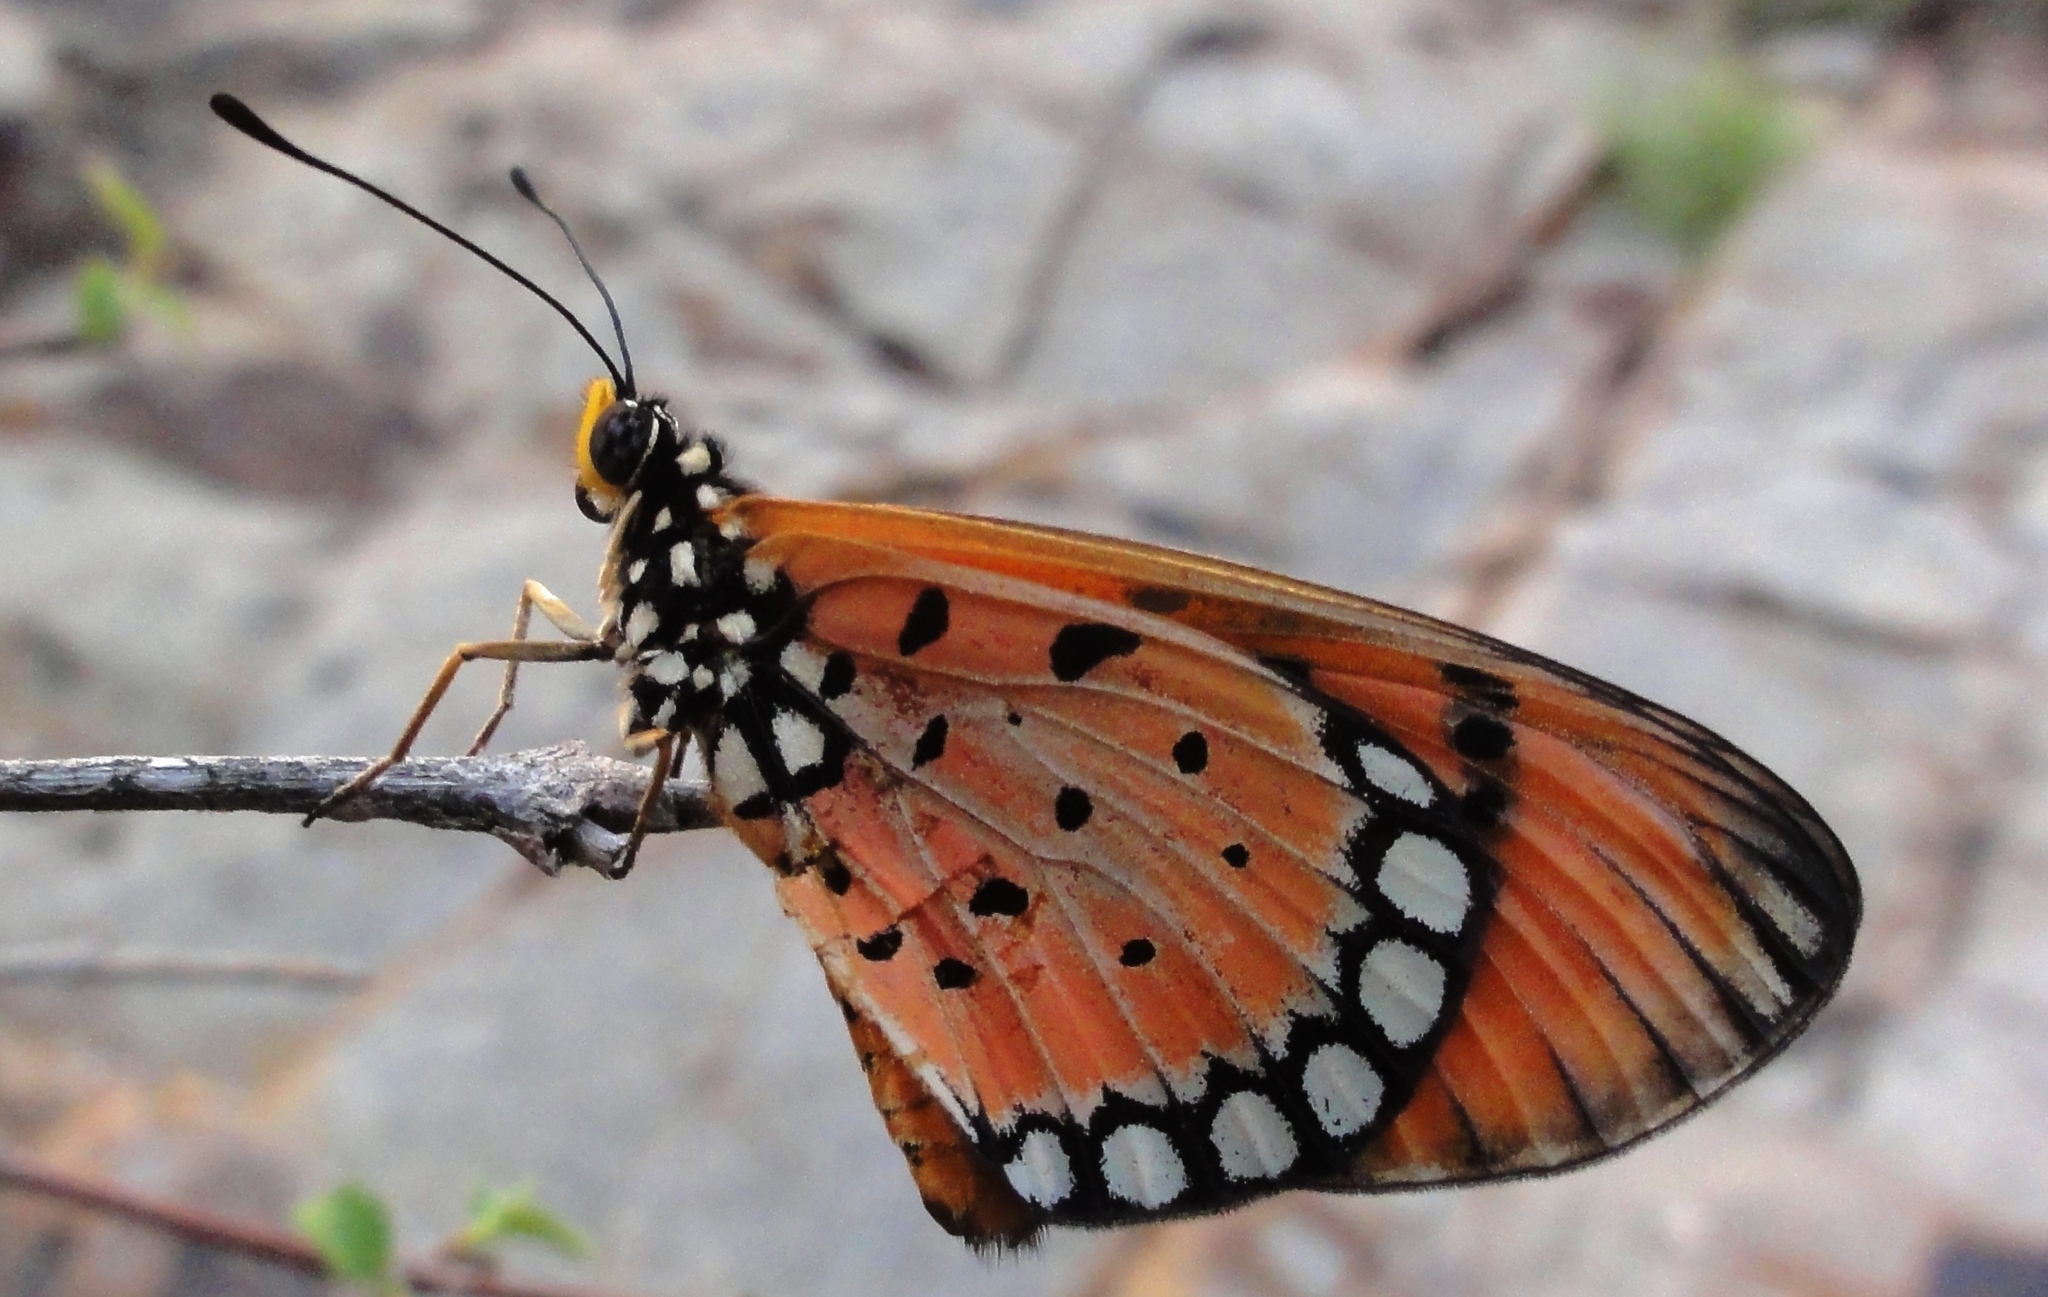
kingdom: Animalia
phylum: Arthropoda
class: Insecta
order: Lepidoptera
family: Nymphalidae
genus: Acraea
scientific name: Acraea terpsicore
